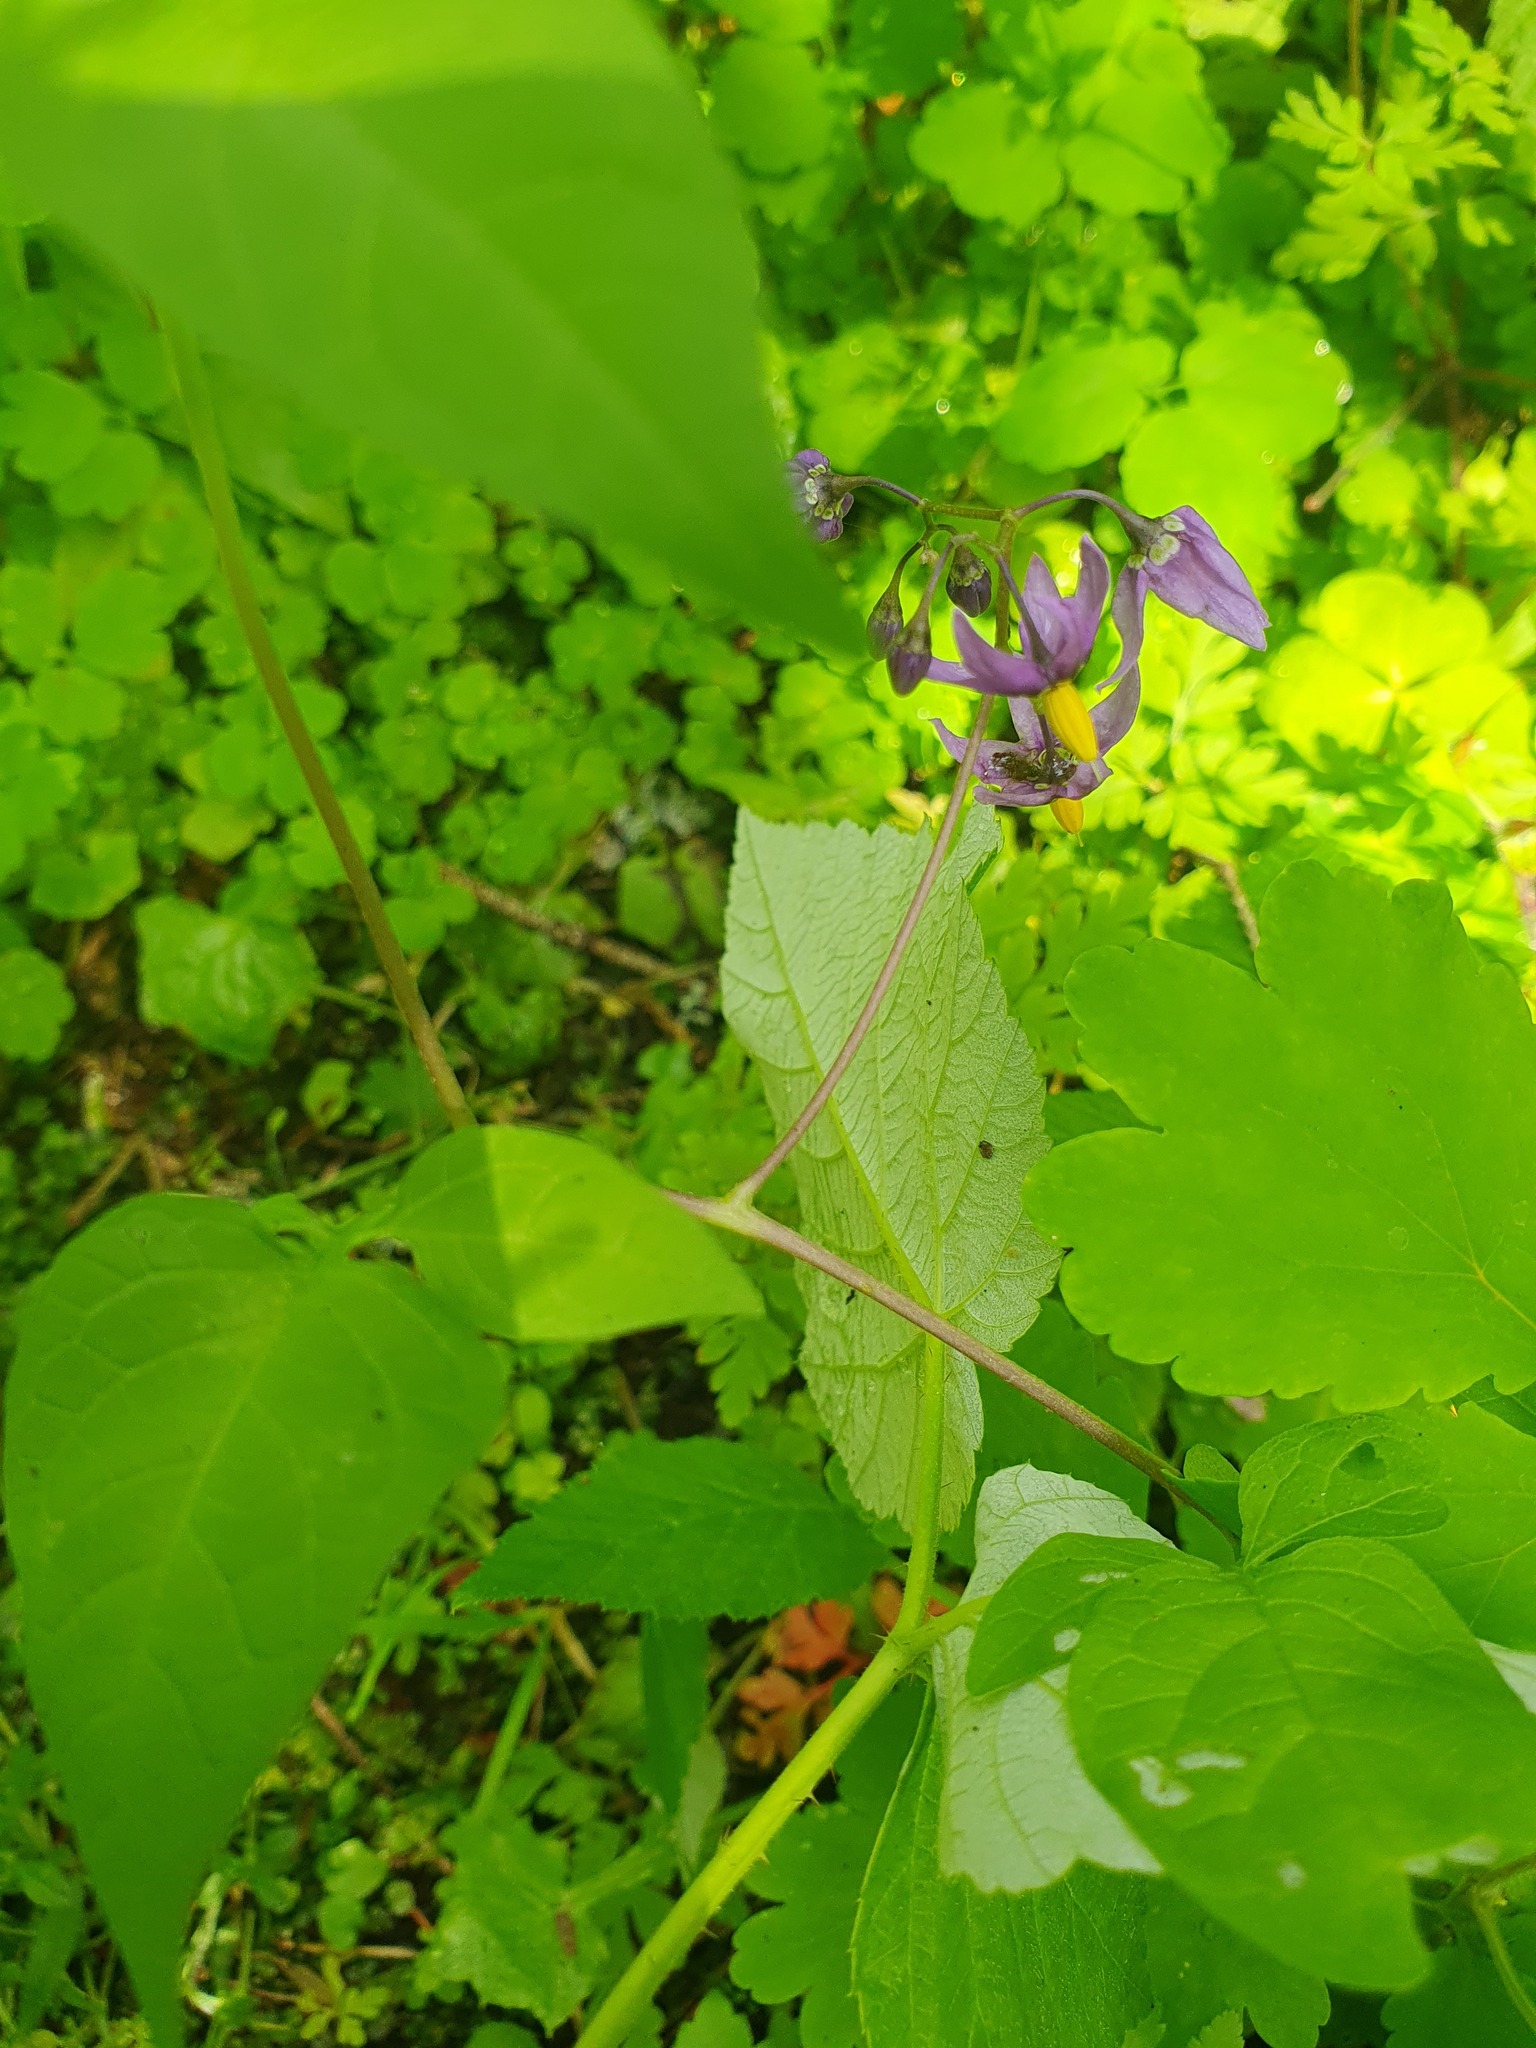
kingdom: Plantae
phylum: Tracheophyta
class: Magnoliopsida
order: Solanales
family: Solanaceae
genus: Solanum
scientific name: Solanum dulcamara
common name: Climbing nightshade
